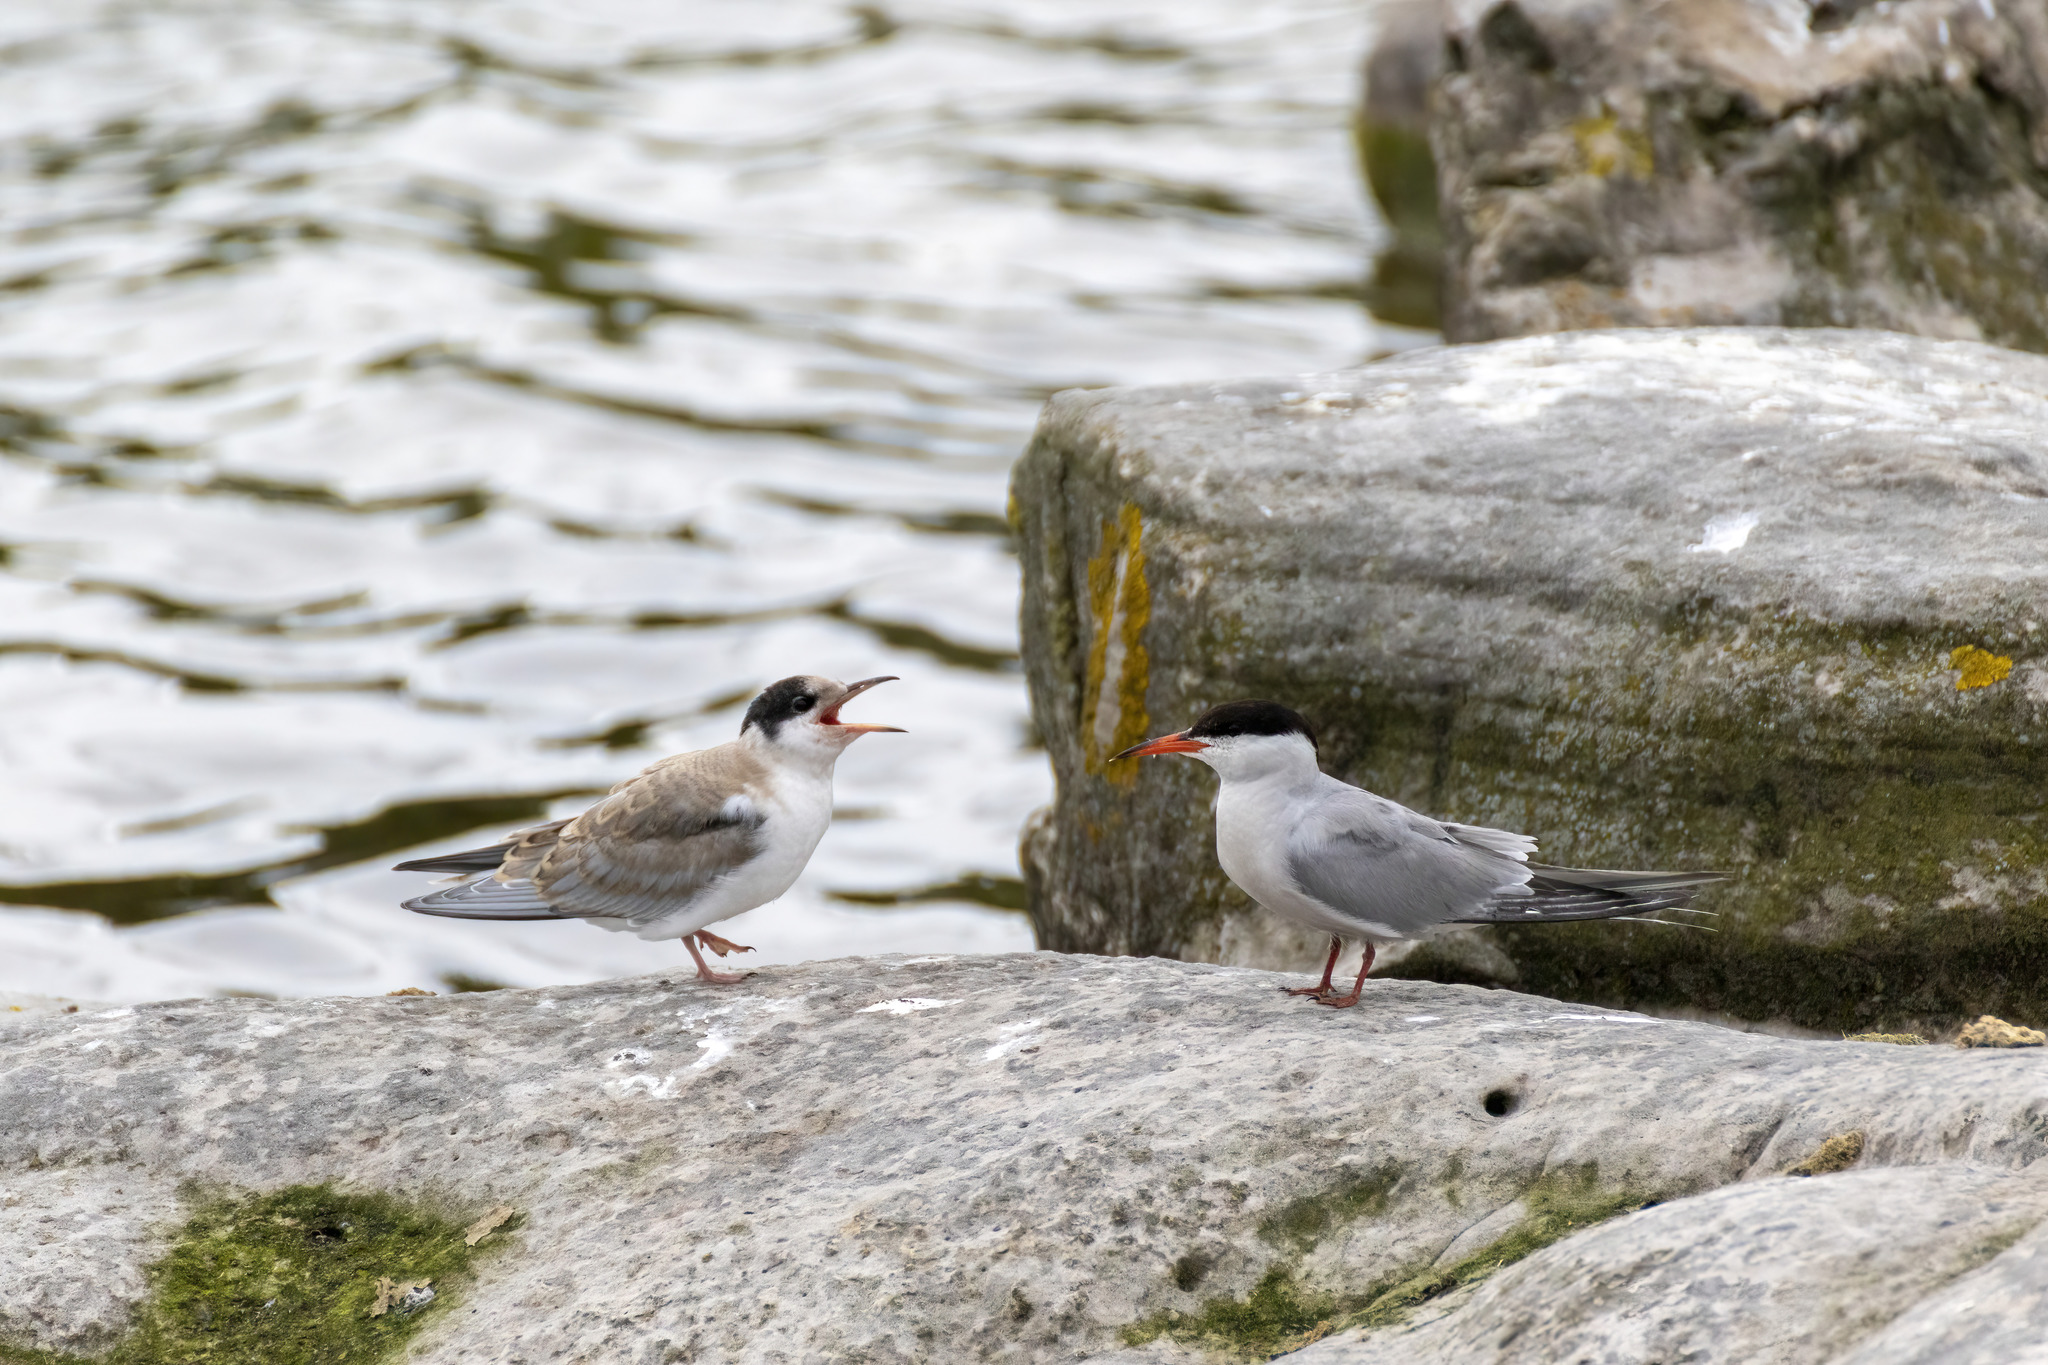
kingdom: Animalia
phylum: Chordata
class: Aves
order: Charadriiformes
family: Laridae
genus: Sterna
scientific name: Sterna hirundo
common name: Common tern
